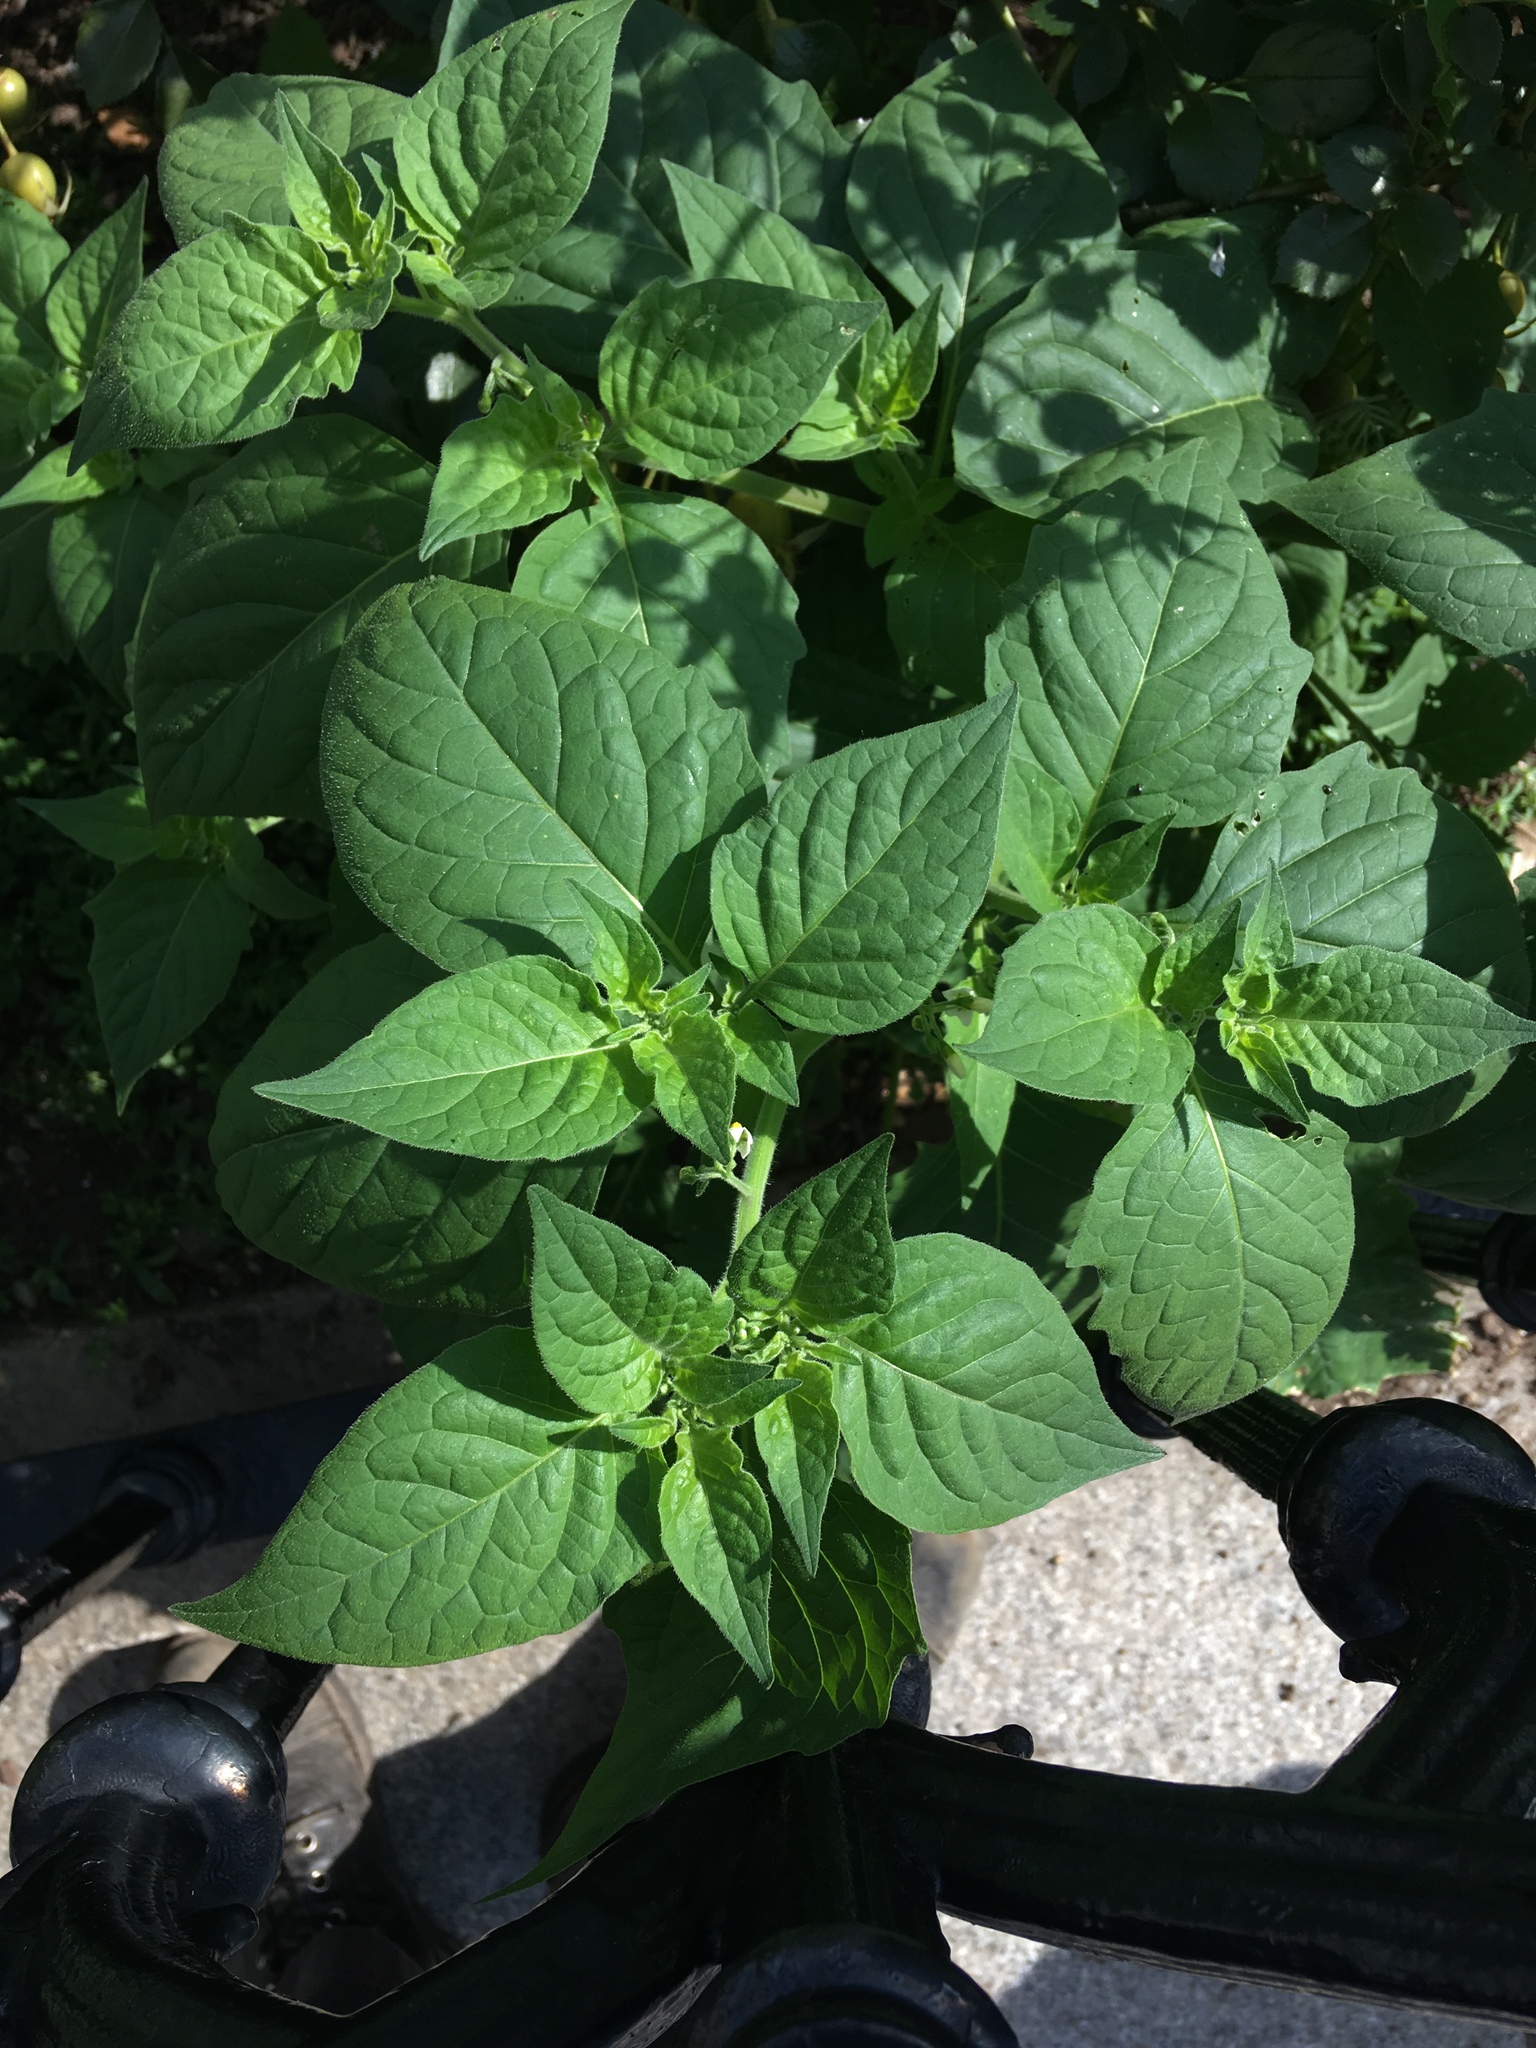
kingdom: Plantae
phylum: Tracheophyta
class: Magnoliopsida
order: Solanales
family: Solanaceae
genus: Solanum
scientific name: Solanum nigrum
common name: Black nightshade
